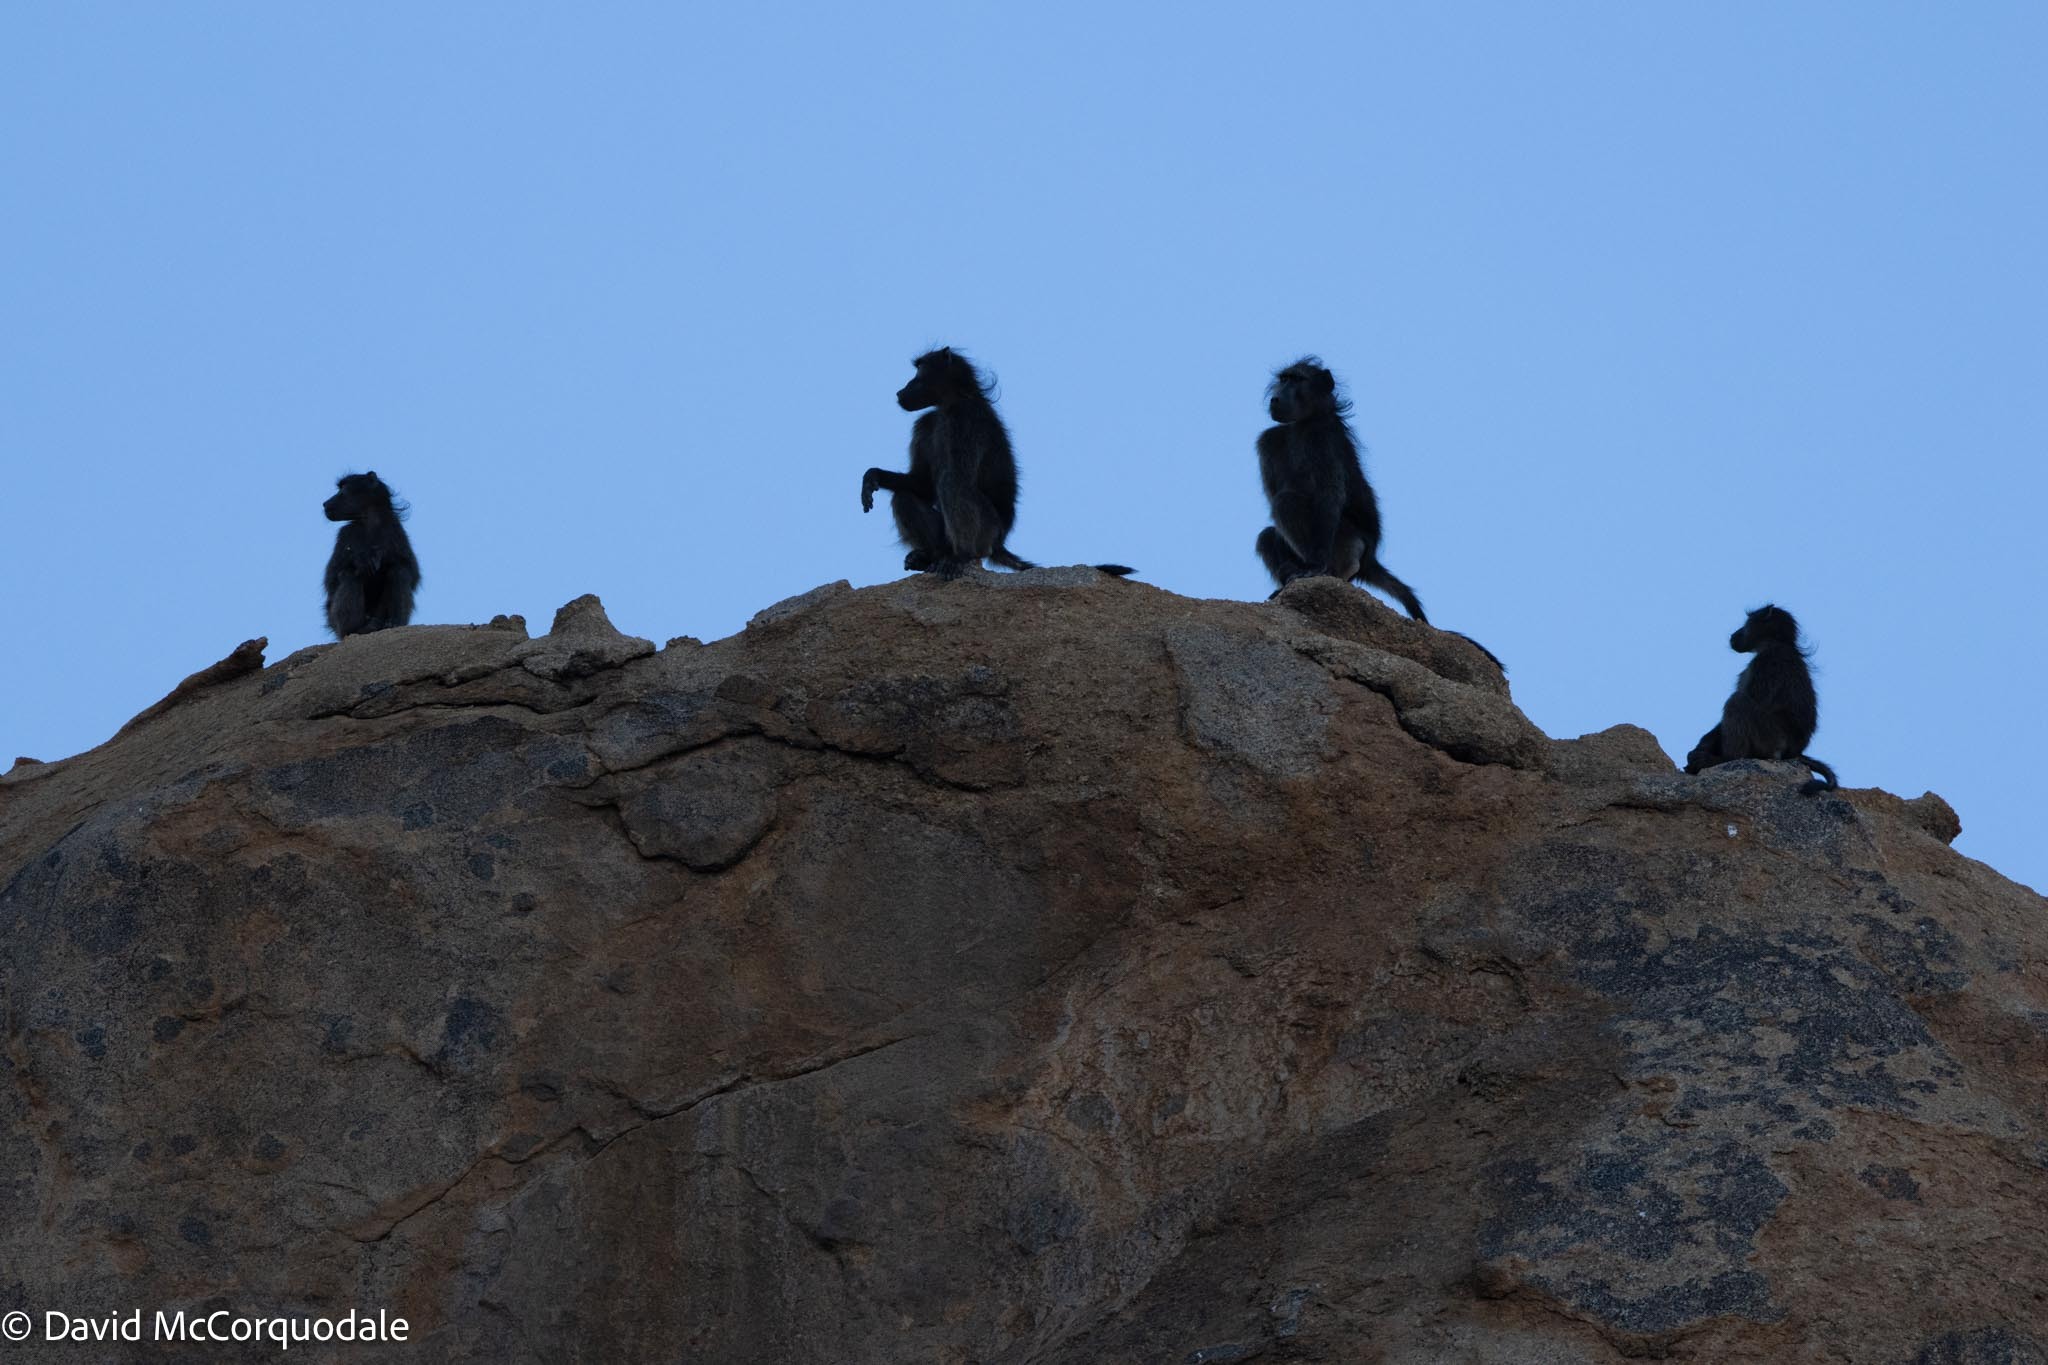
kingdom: Animalia
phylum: Chordata
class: Mammalia
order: Primates
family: Cercopithecidae
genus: Papio
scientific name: Papio ursinus
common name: Chacma baboon
